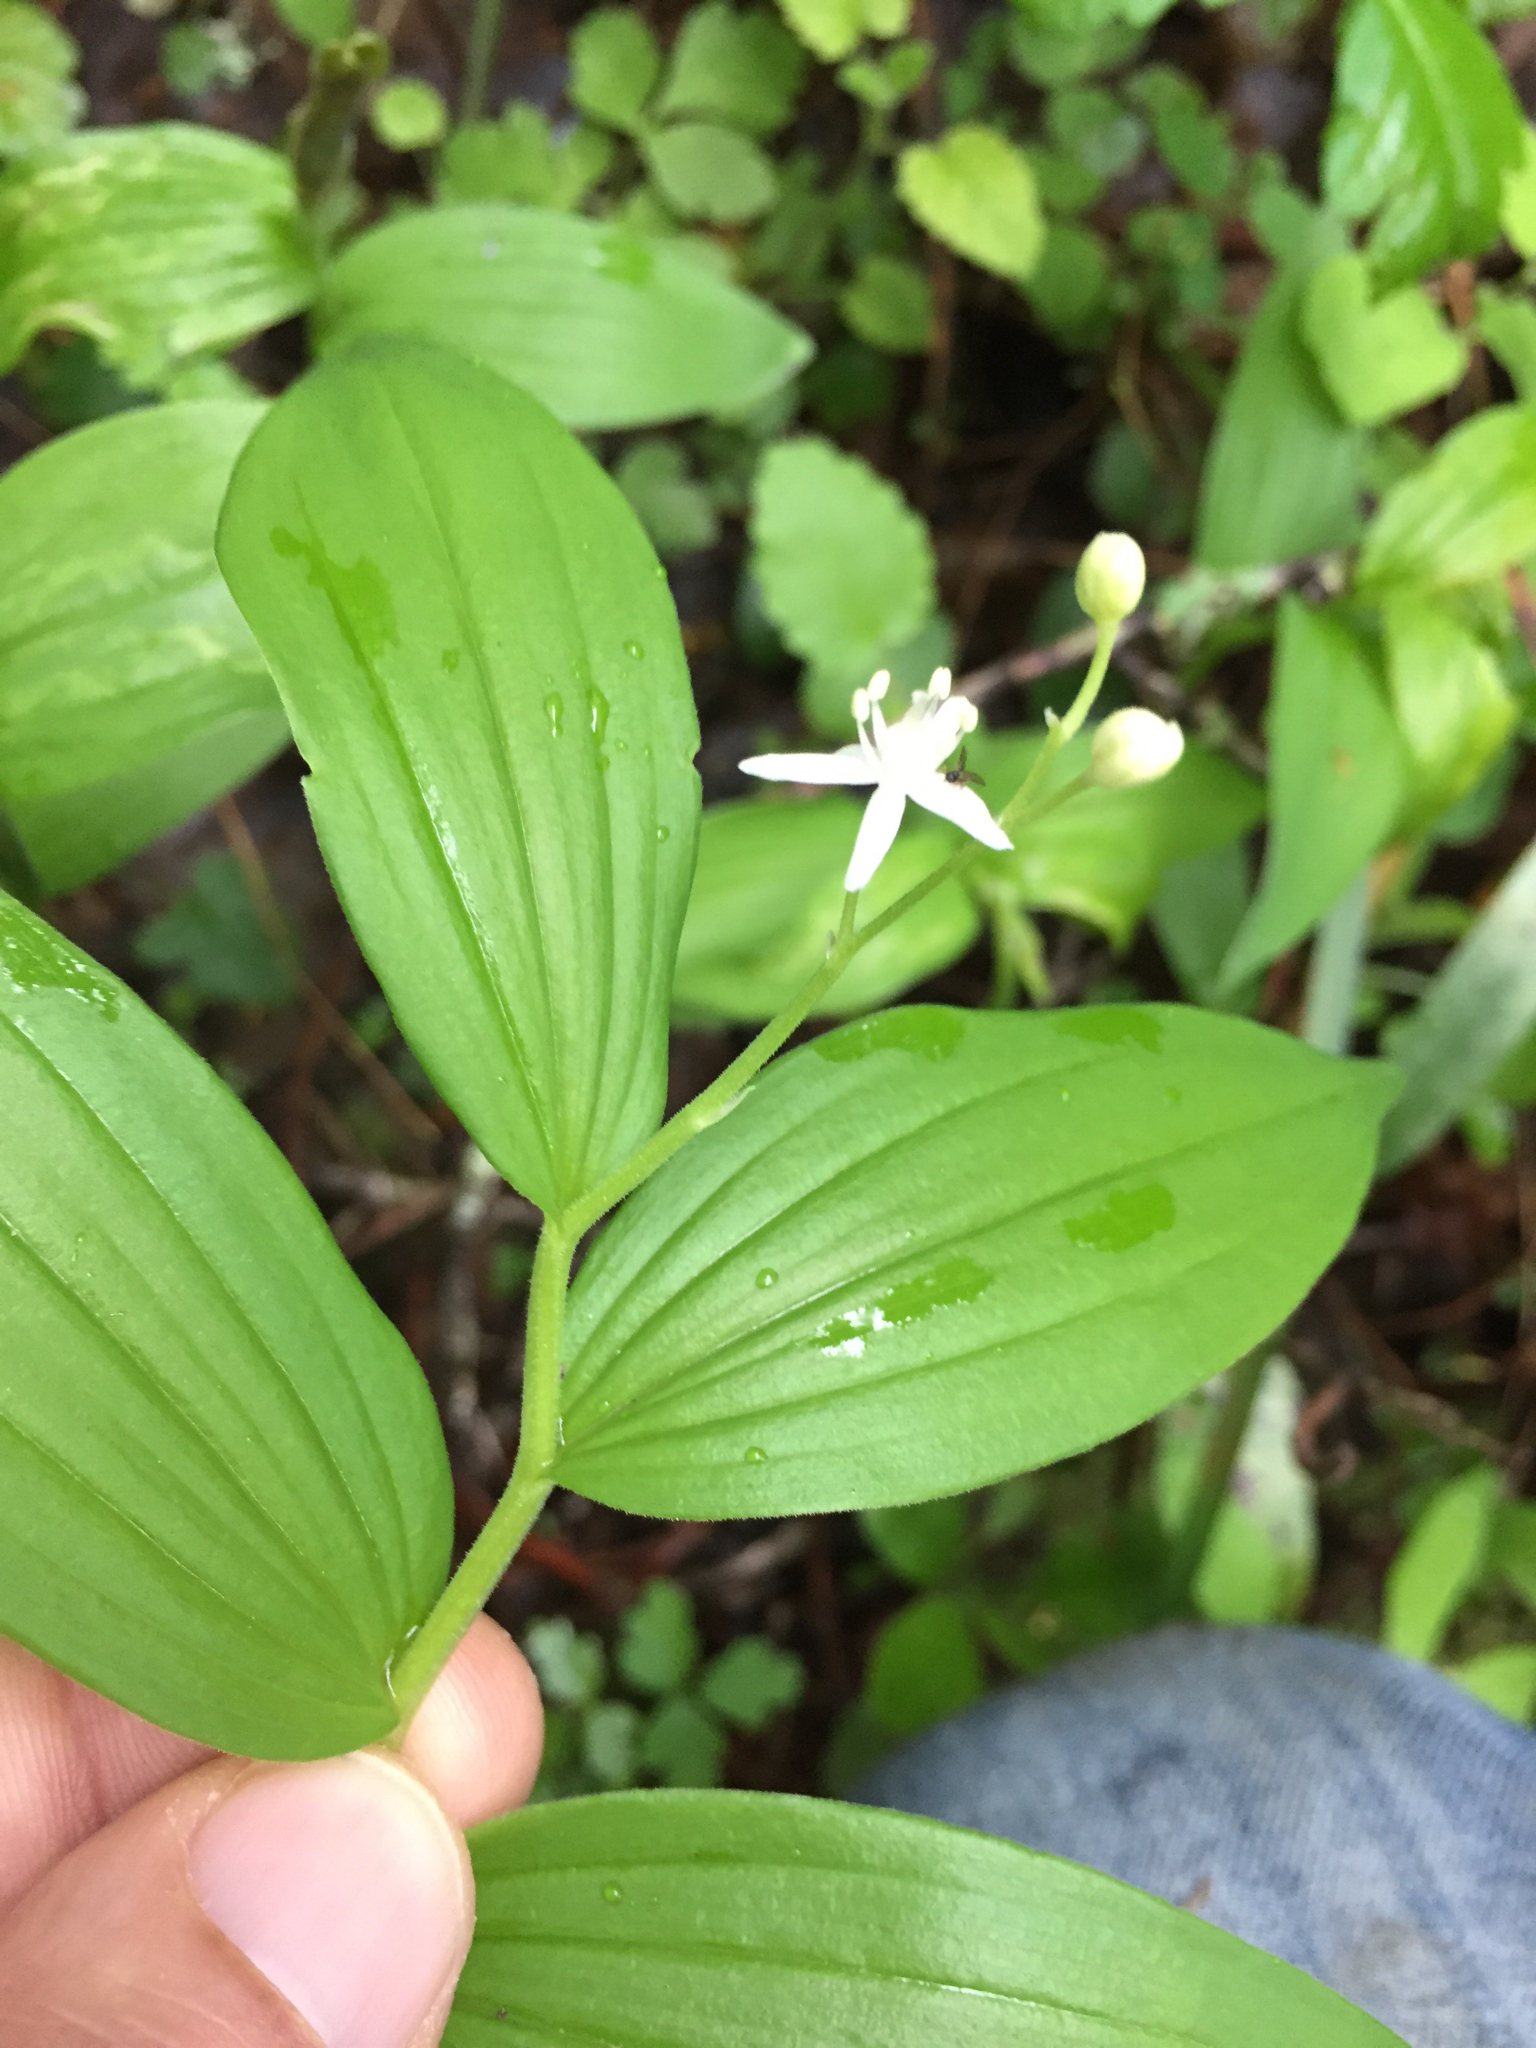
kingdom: Plantae
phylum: Tracheophyta
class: Liliopsida
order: Asparagales
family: Asparagaceae
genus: Maianthemum
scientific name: Maianthemum stellatum
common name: Little false solomon's seal
